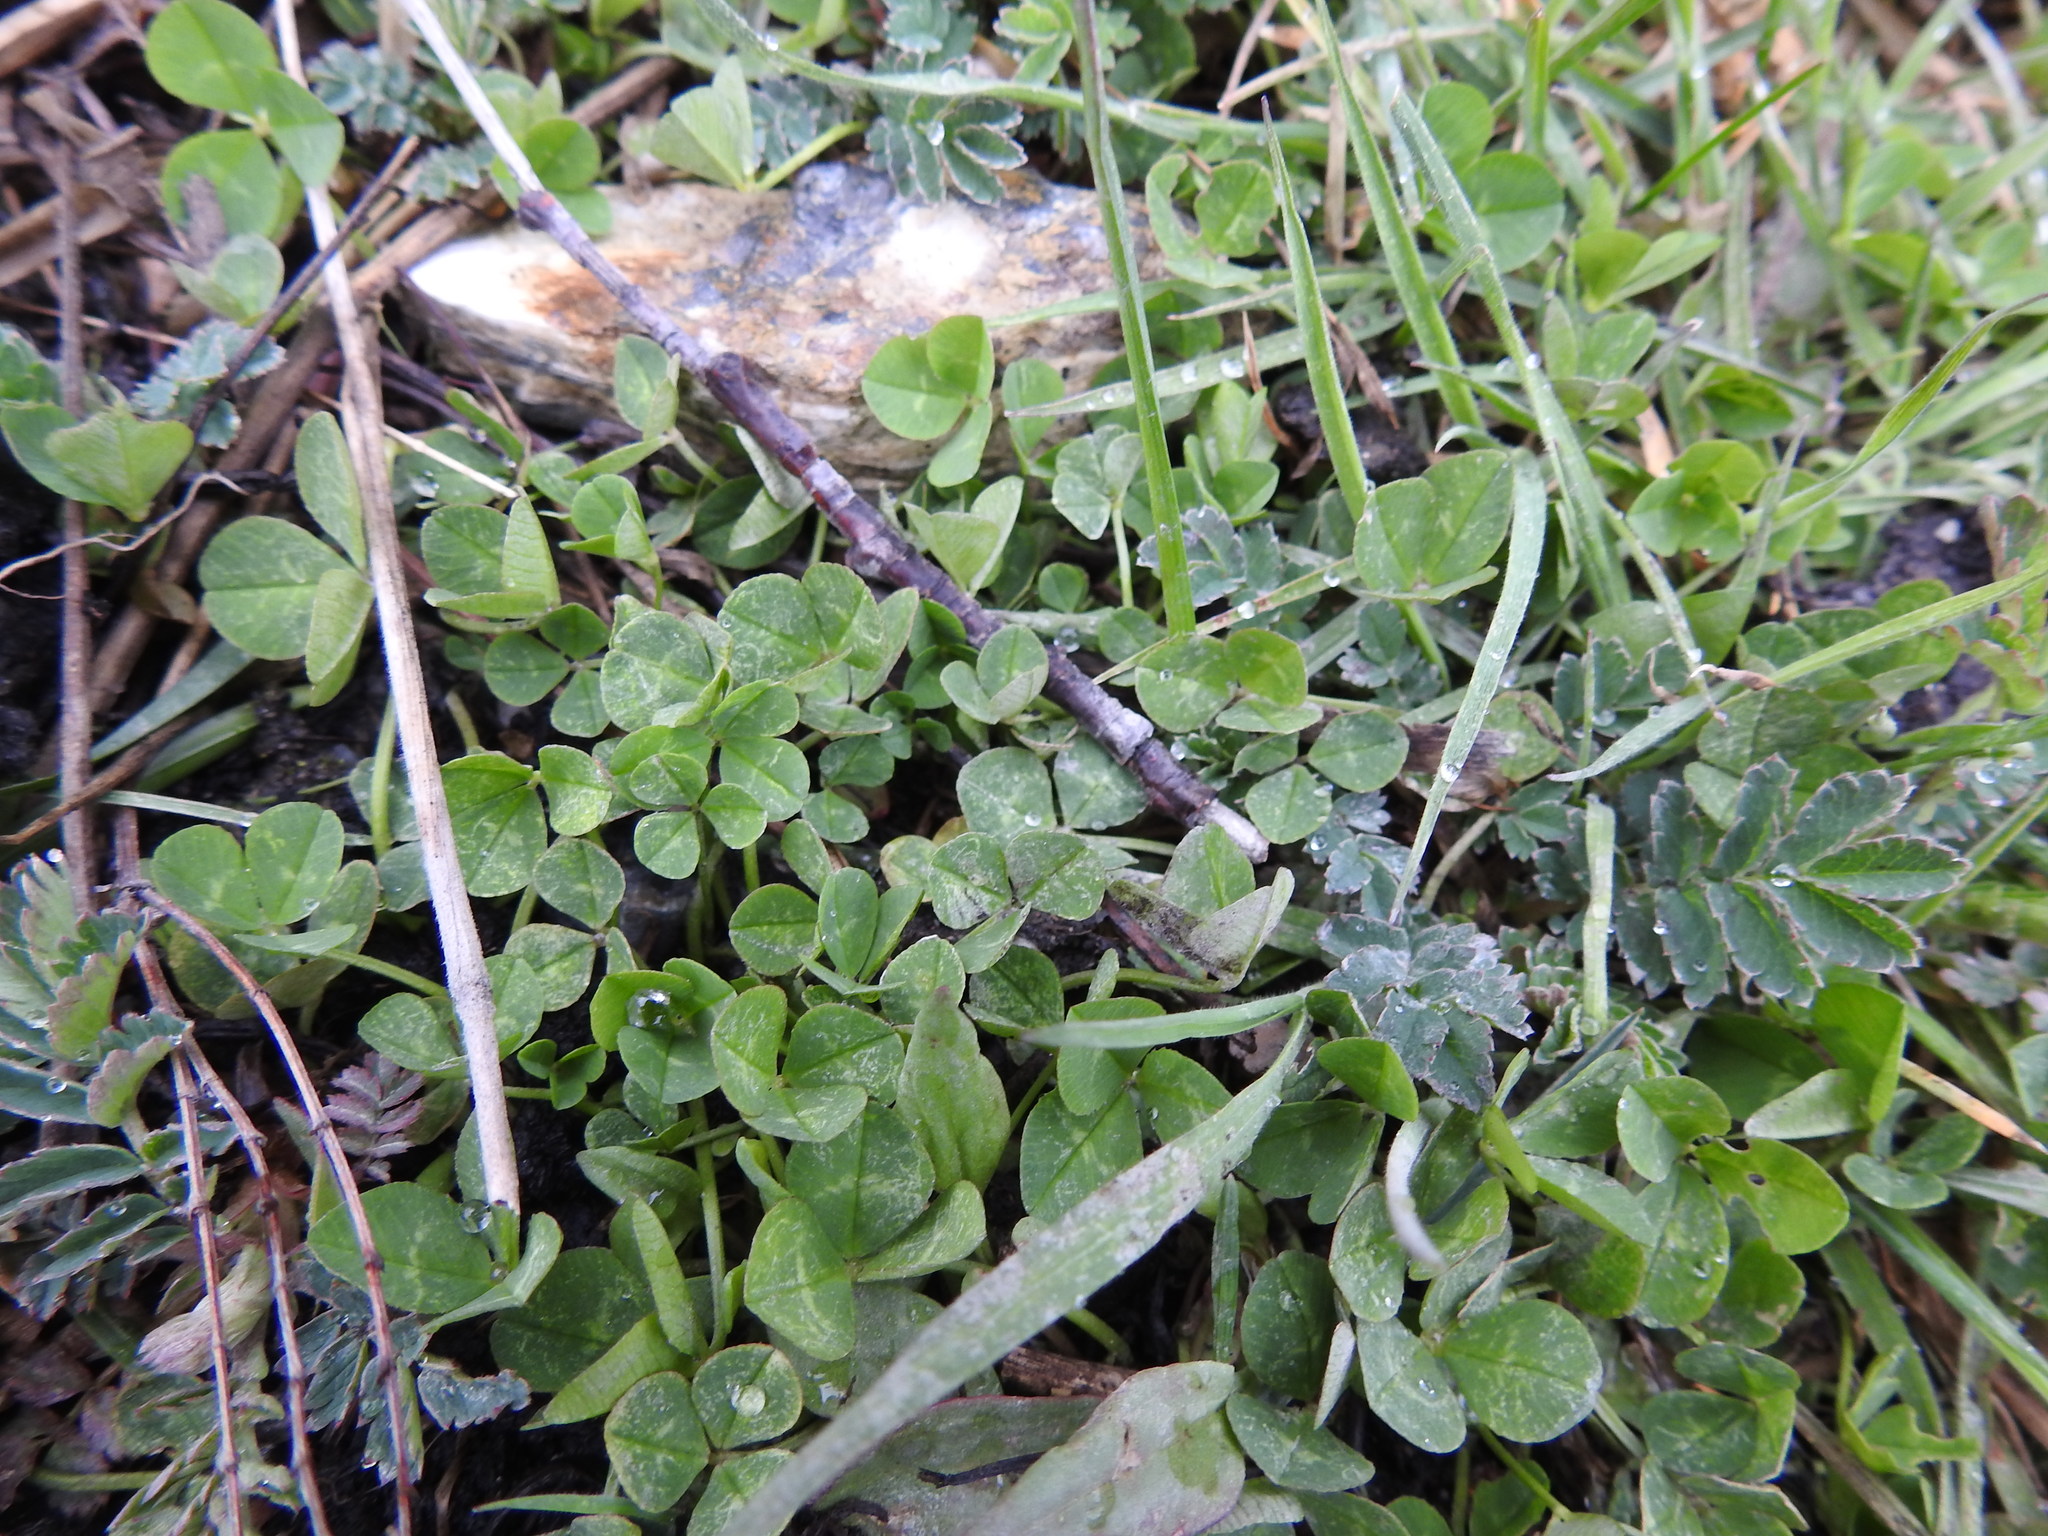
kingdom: Plantae
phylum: Tracheophyta
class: Magnoliopsida
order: Fabales
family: Fabaceae
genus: Trifolium
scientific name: Trifolium repens
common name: White clover
